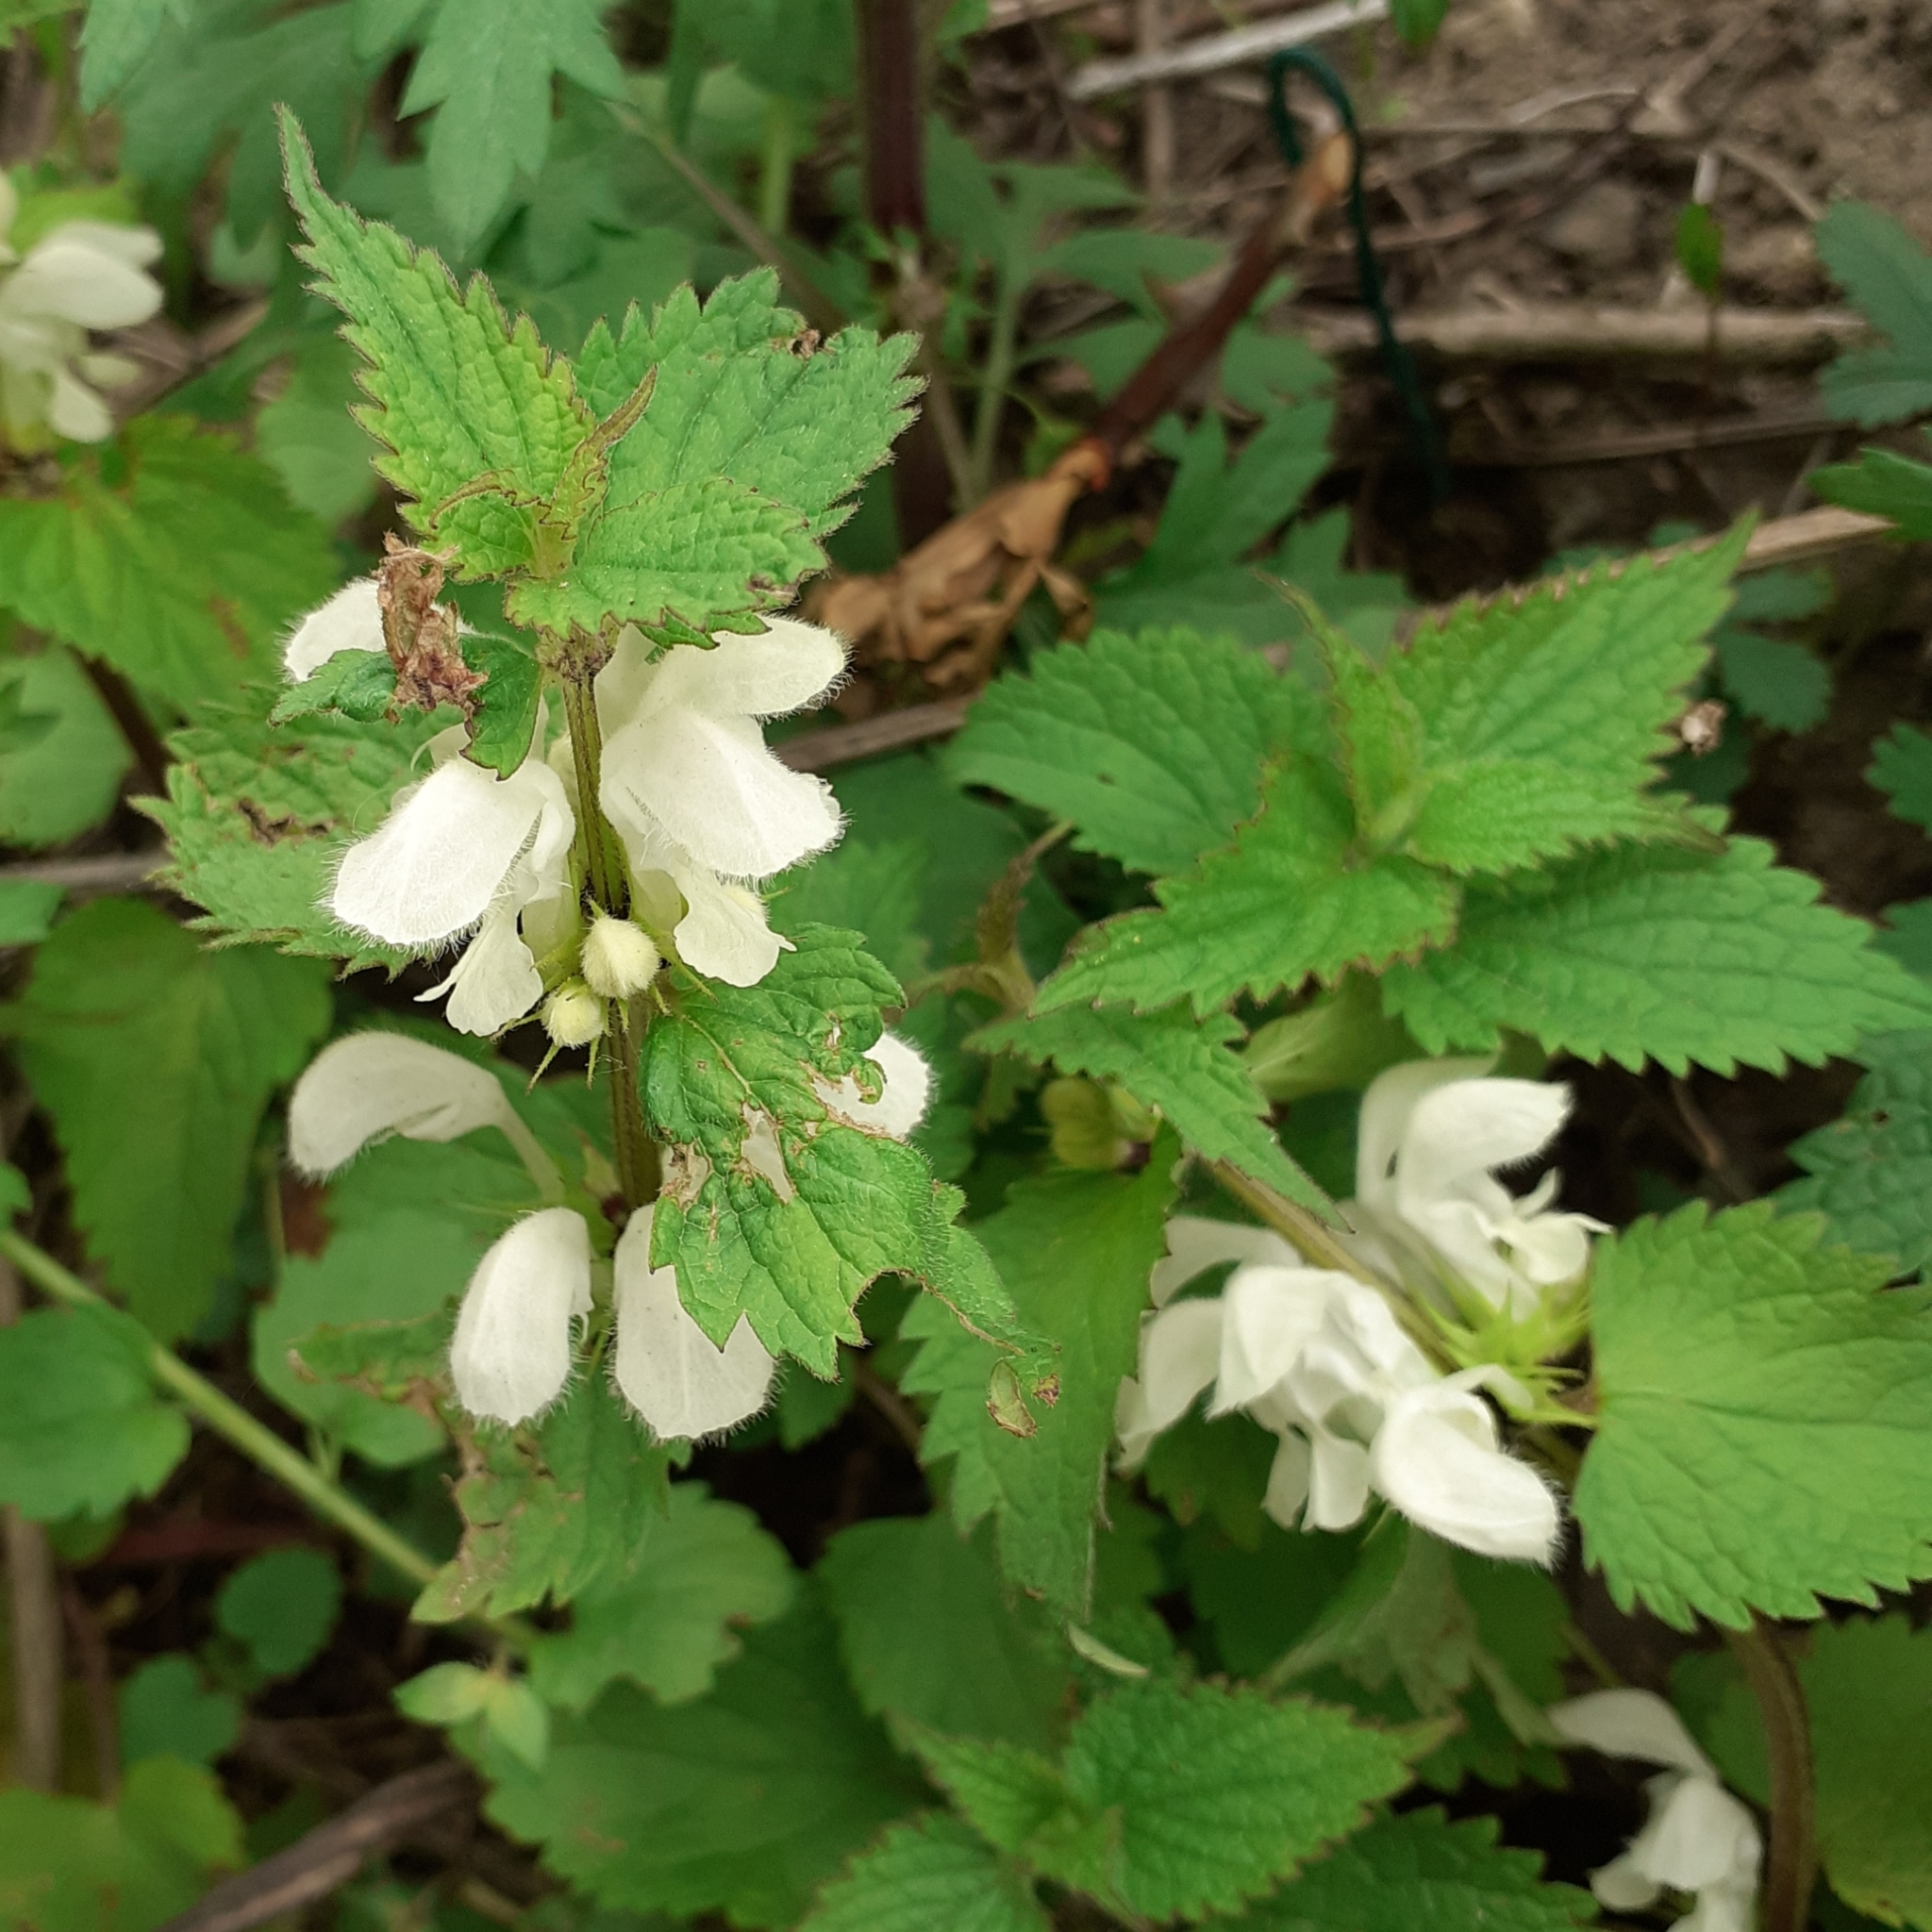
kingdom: Plantae
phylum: Tracheophyta
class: Magnoliopsida
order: Lamiales
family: Lamiaceae
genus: Lamium
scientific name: Lamium album
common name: White dead-nettle
